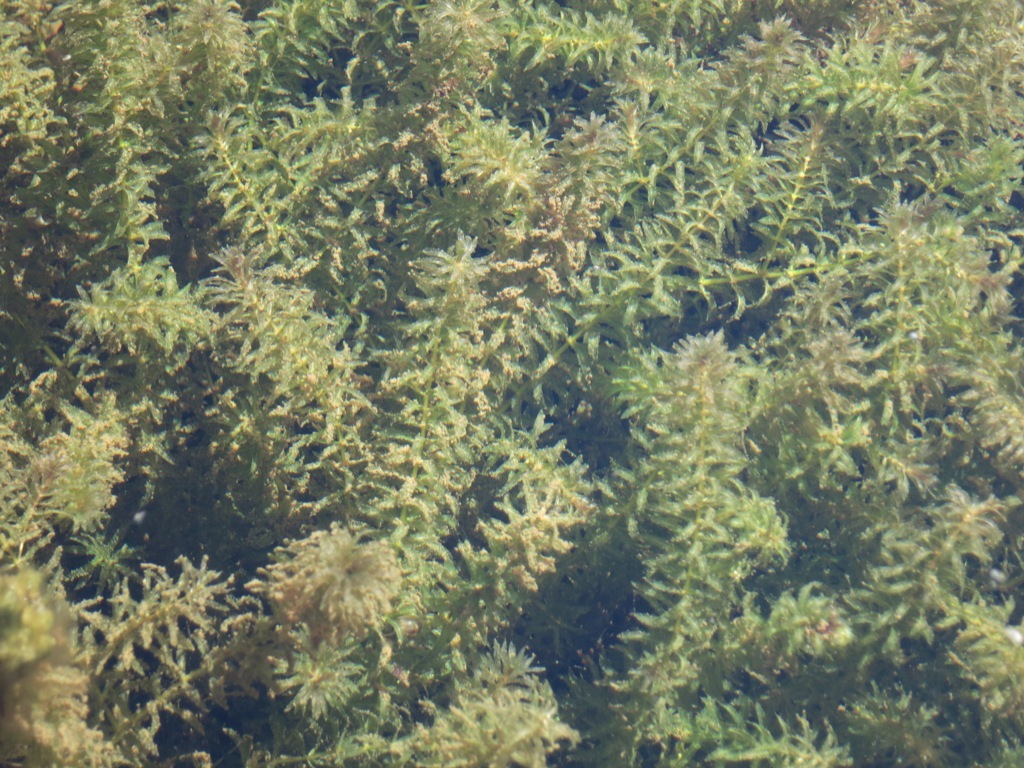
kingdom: Plantae
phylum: Tracheophyta
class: Liliopsida
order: Alismatales
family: Hydrocharitaceae
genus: Hydrilla
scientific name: Hydrilla verticillata
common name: Florida-elodea
